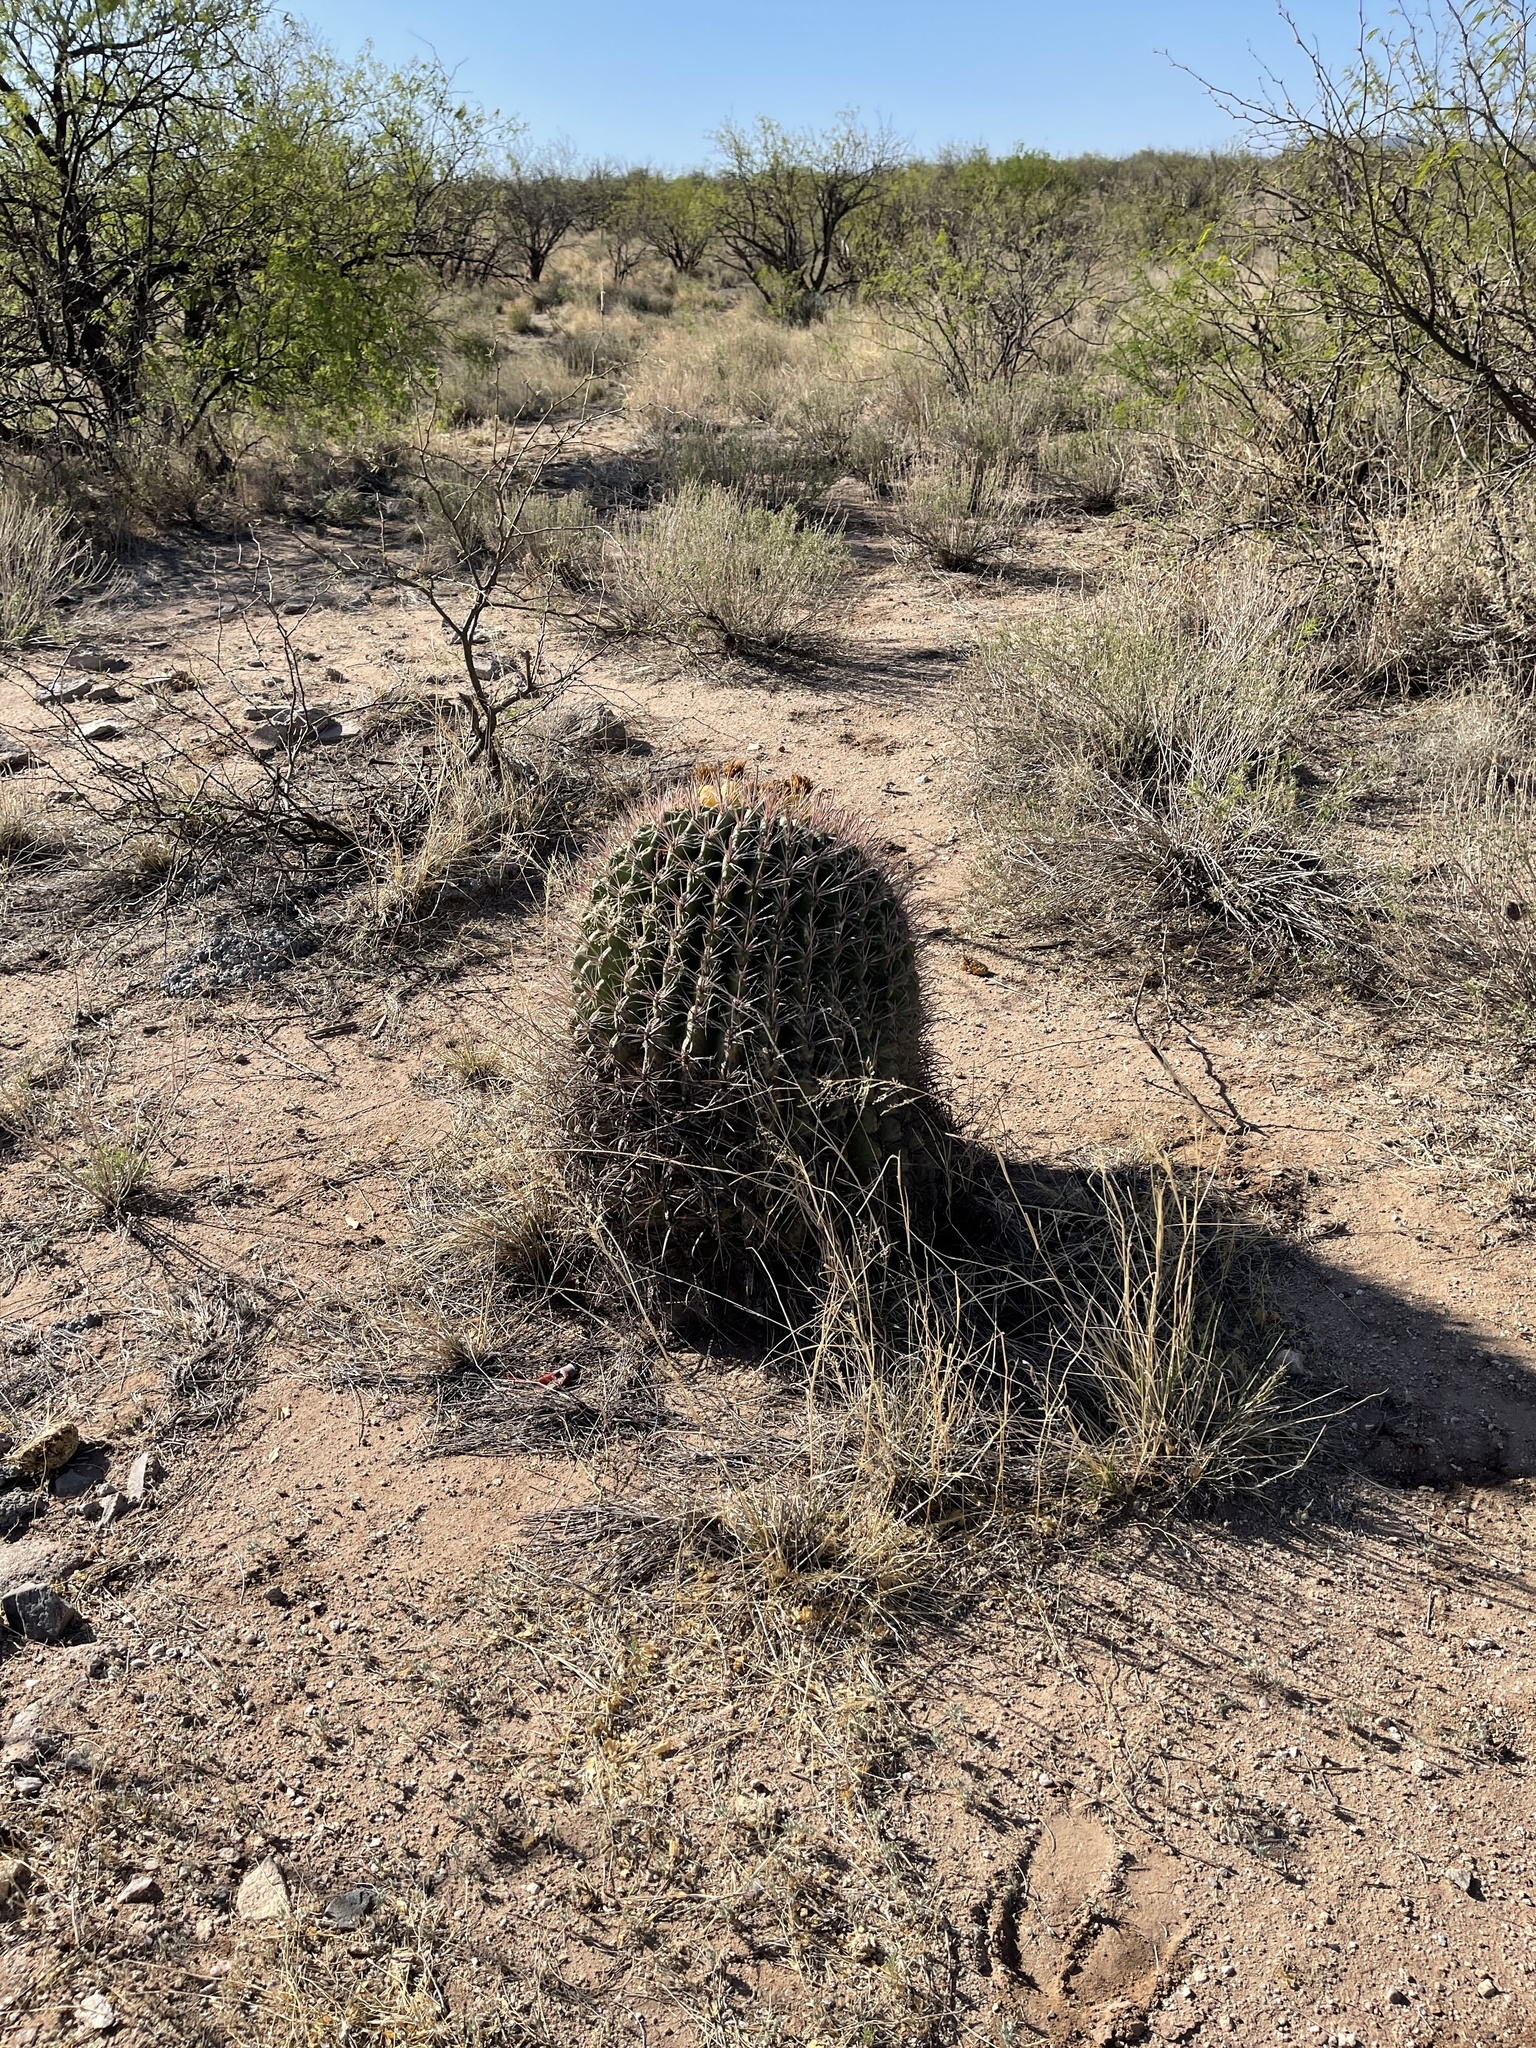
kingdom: Plantae
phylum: Tracheophyta
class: Magnoliopsida
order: Caryophyllales
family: Cactaceae
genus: Ferocactus
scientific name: Ferocactus wislizeni
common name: Candy barrel cactus
